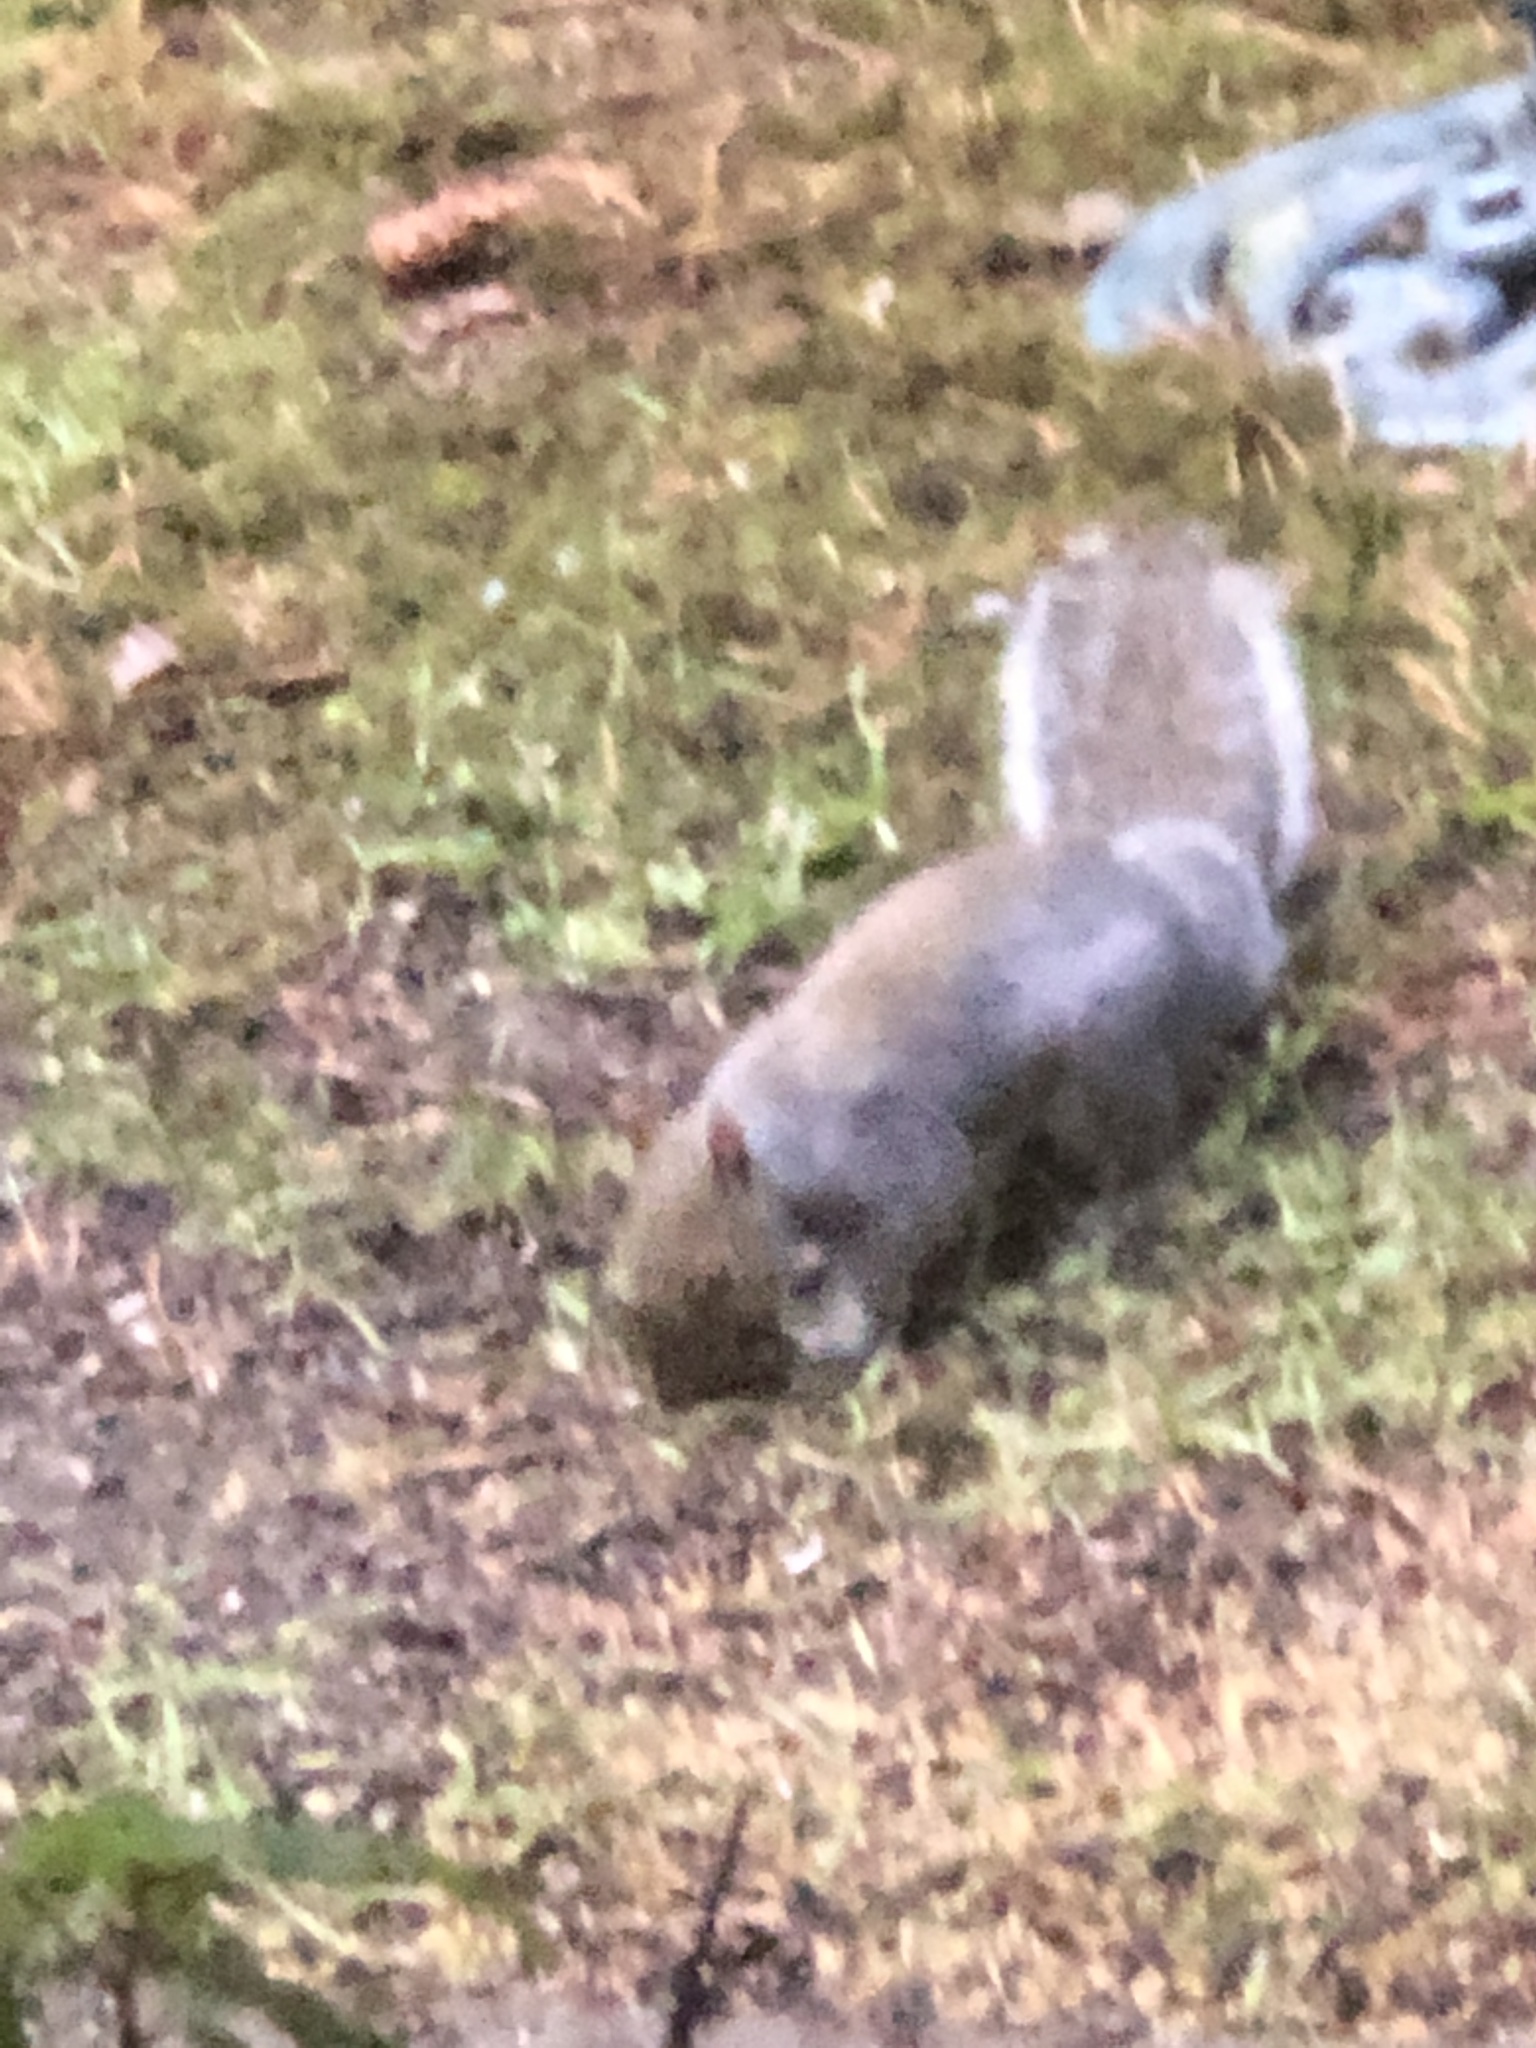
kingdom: Animalia
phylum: Chordata
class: Mammalia
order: Rodentia
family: Sciuridae
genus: Sciurus
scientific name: Sciurus carolinensis
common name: Eastern gray squirrel
